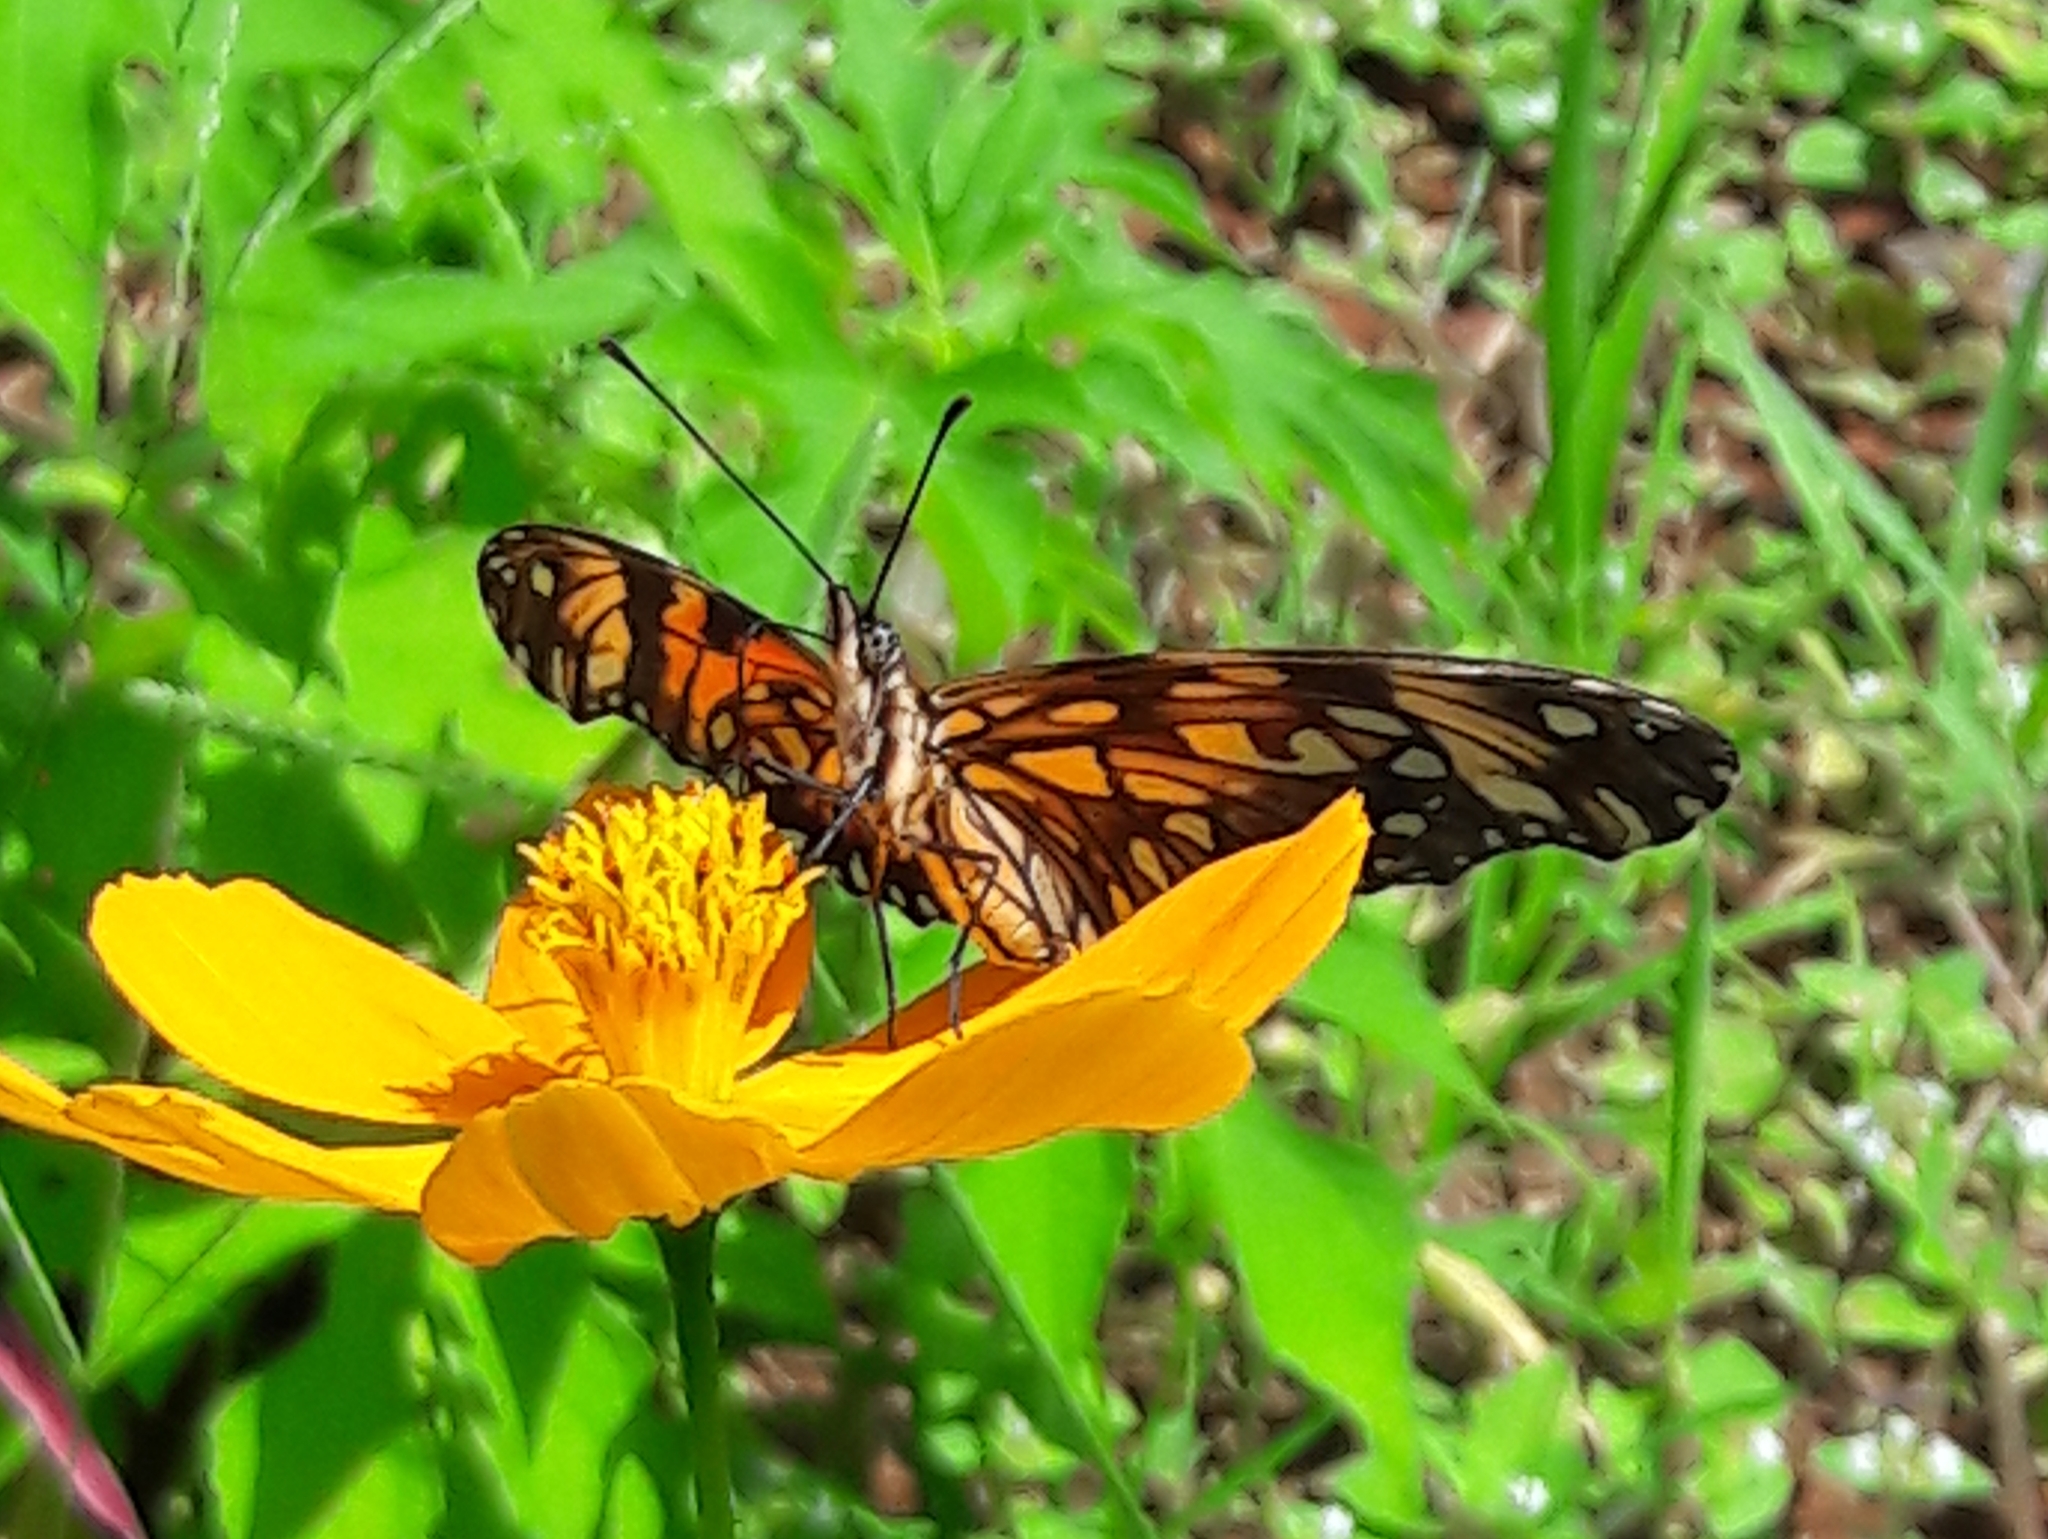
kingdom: Animalia
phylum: Arthropoda
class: Insecta
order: Lepidoptera
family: Nymphalidae
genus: Dione
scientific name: Dione juno
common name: Juno silverspot
